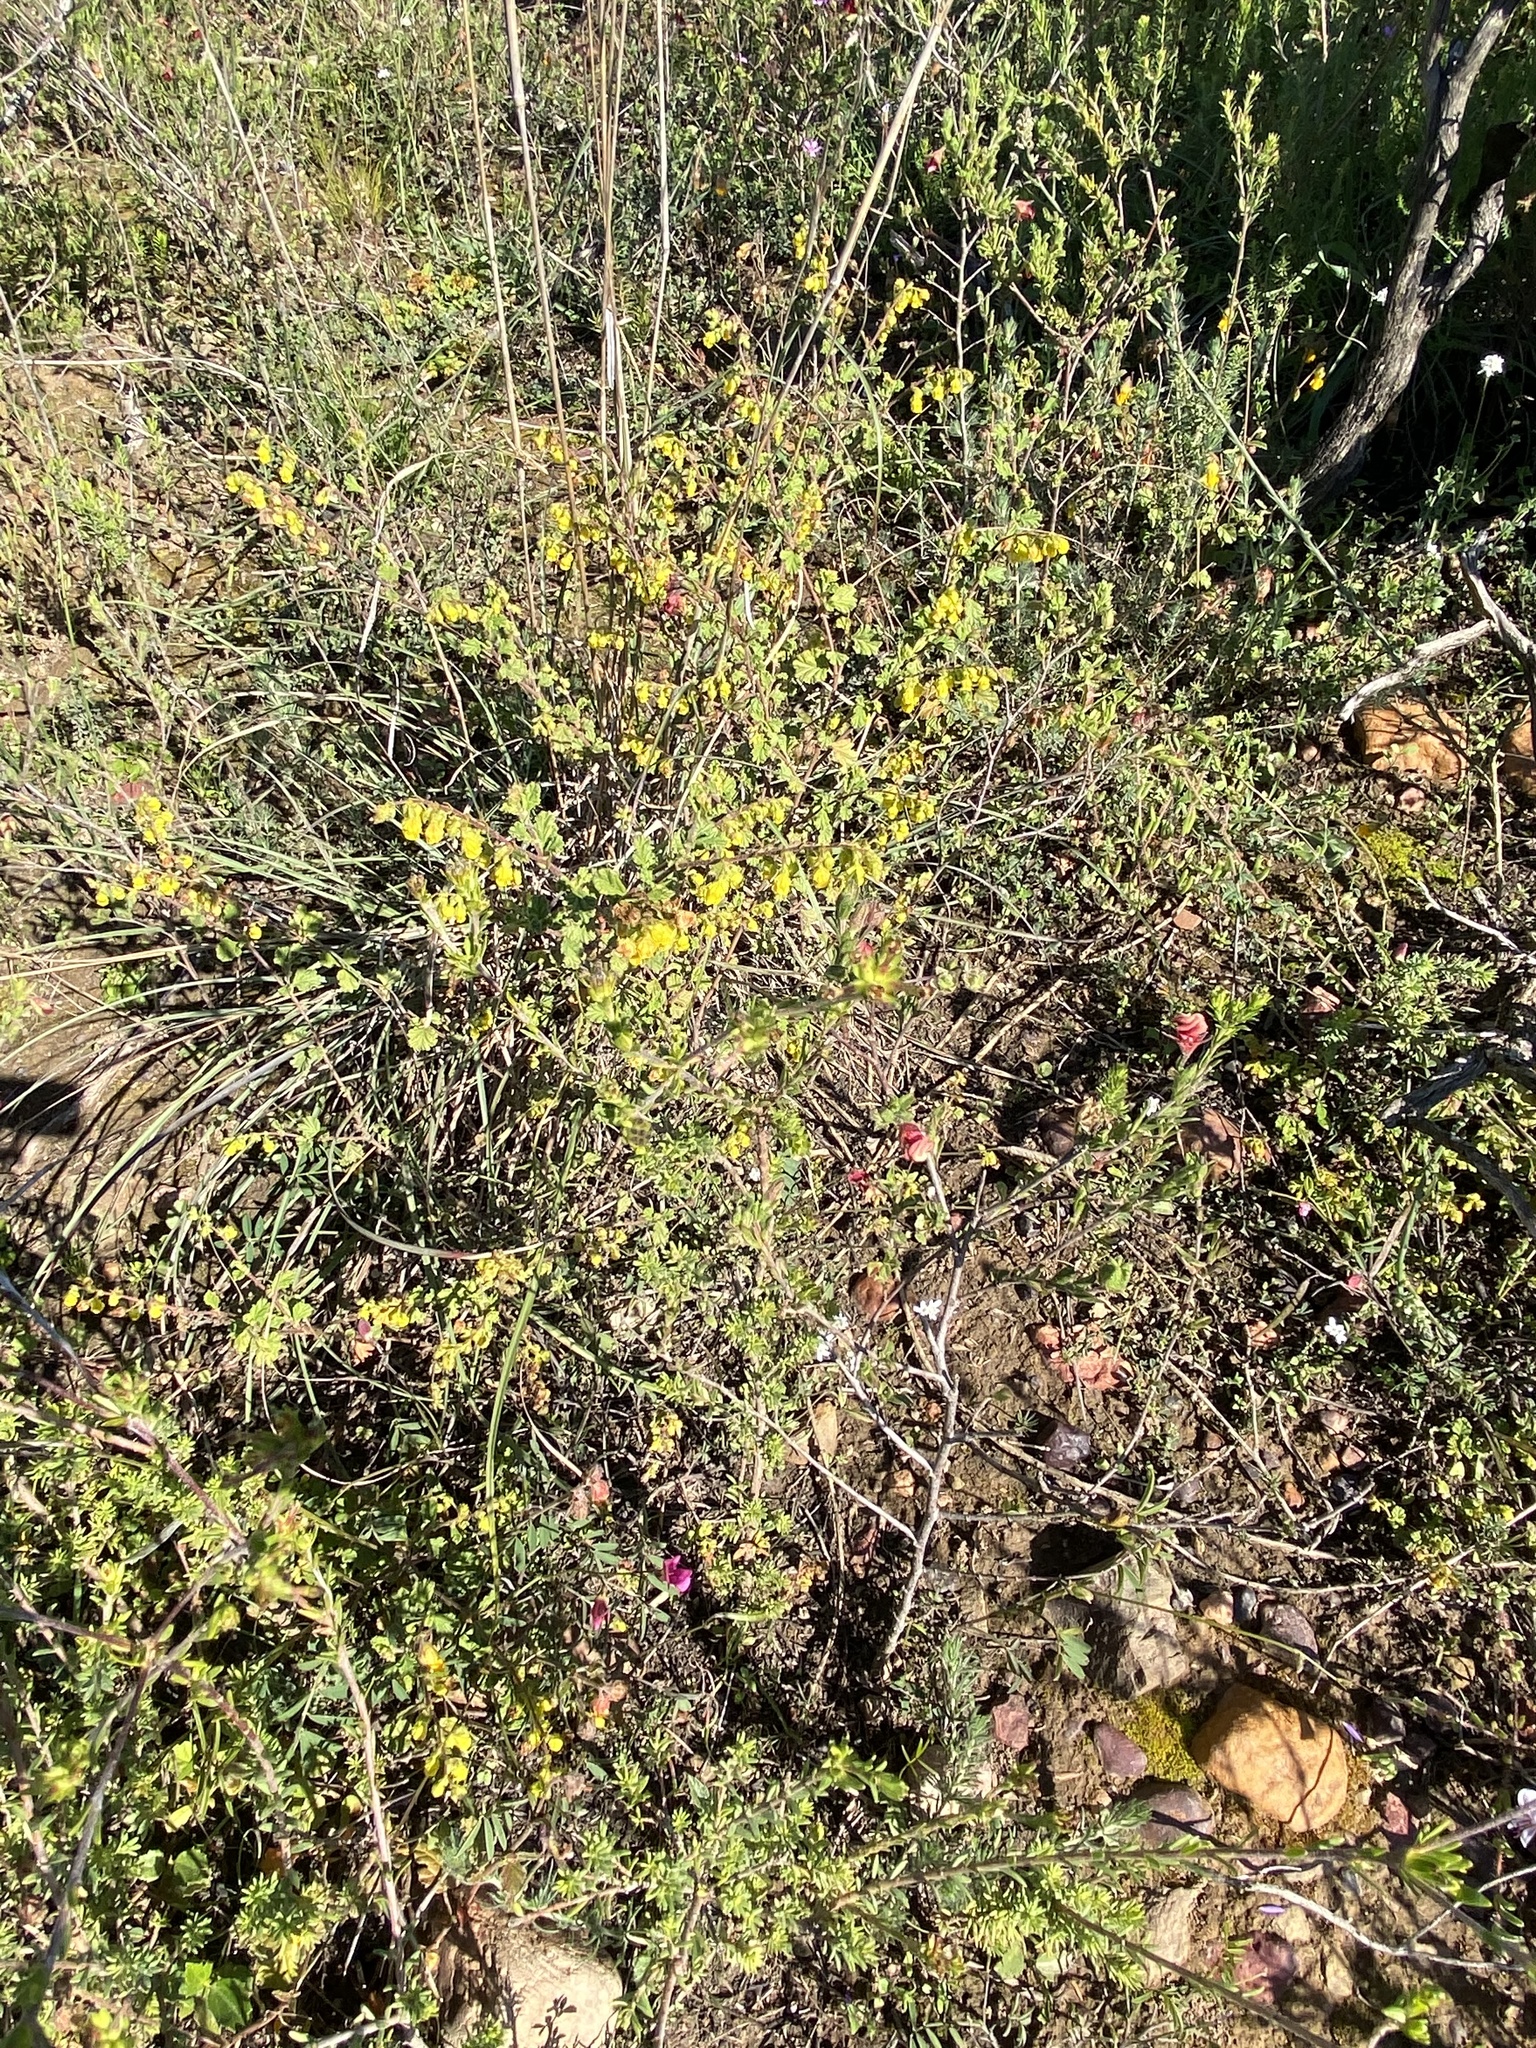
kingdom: Plantae
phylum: Tracheophyta
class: Magnoliopsida
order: Malvales
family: Malvaceae
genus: Hermannia
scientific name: Hermannia alnifolia
